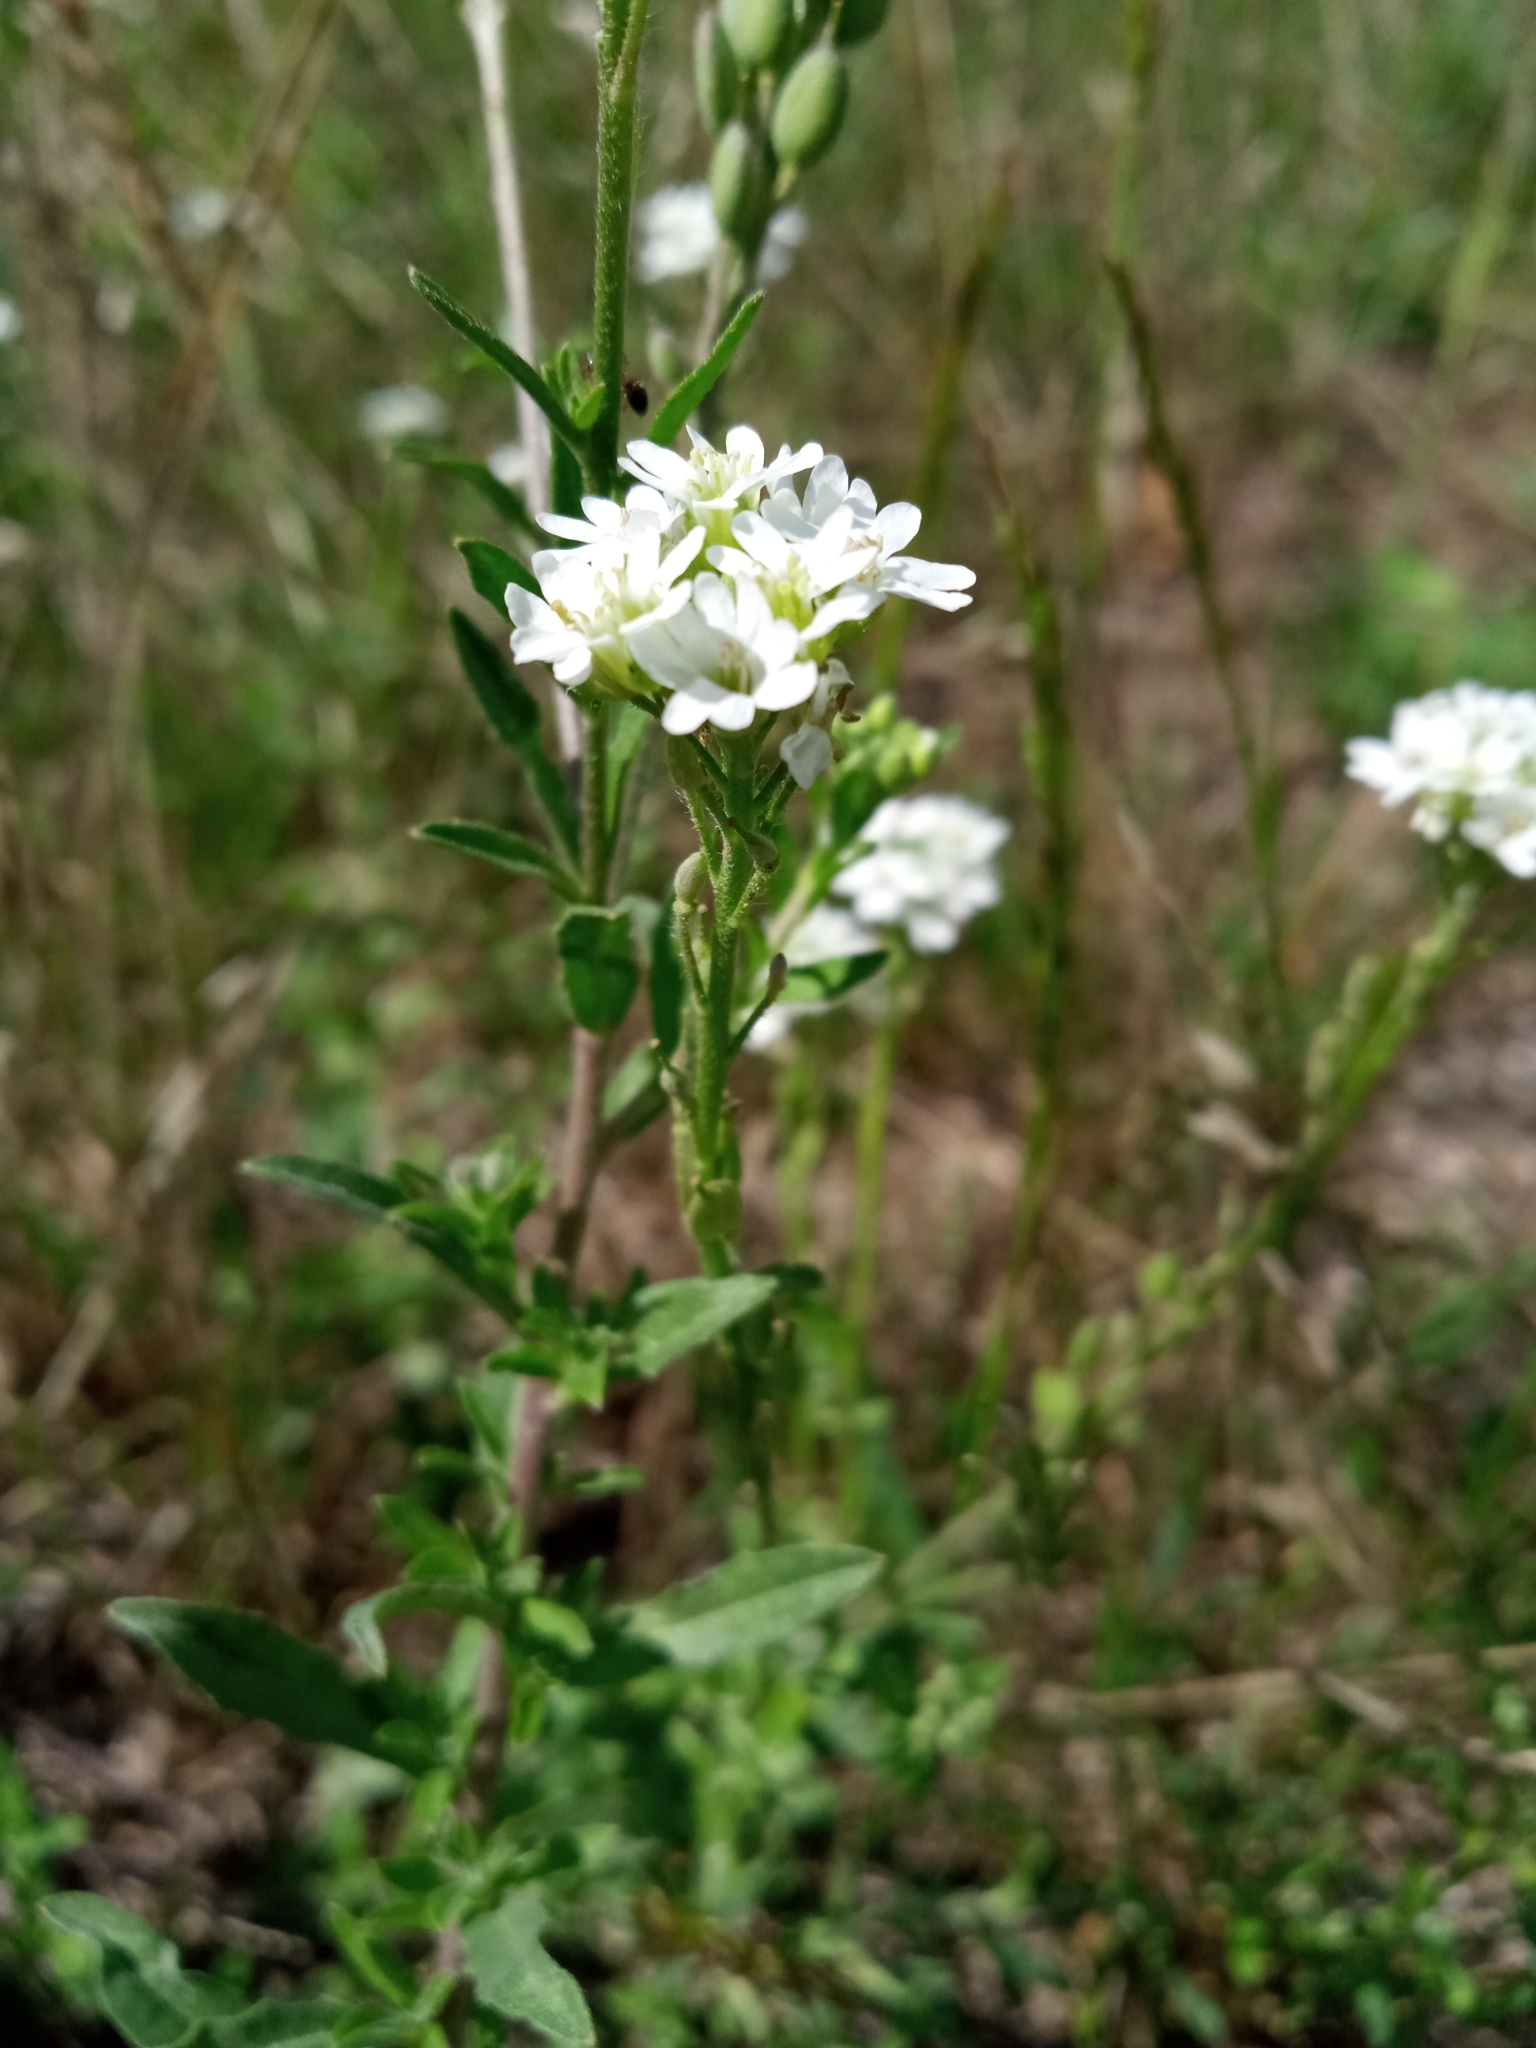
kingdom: Plantae
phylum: Tracheophyta
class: Magnoliopsida
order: Brassicales
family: Brassicaceae
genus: Berteroa
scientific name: Berteroa incana
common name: Hoary alison
